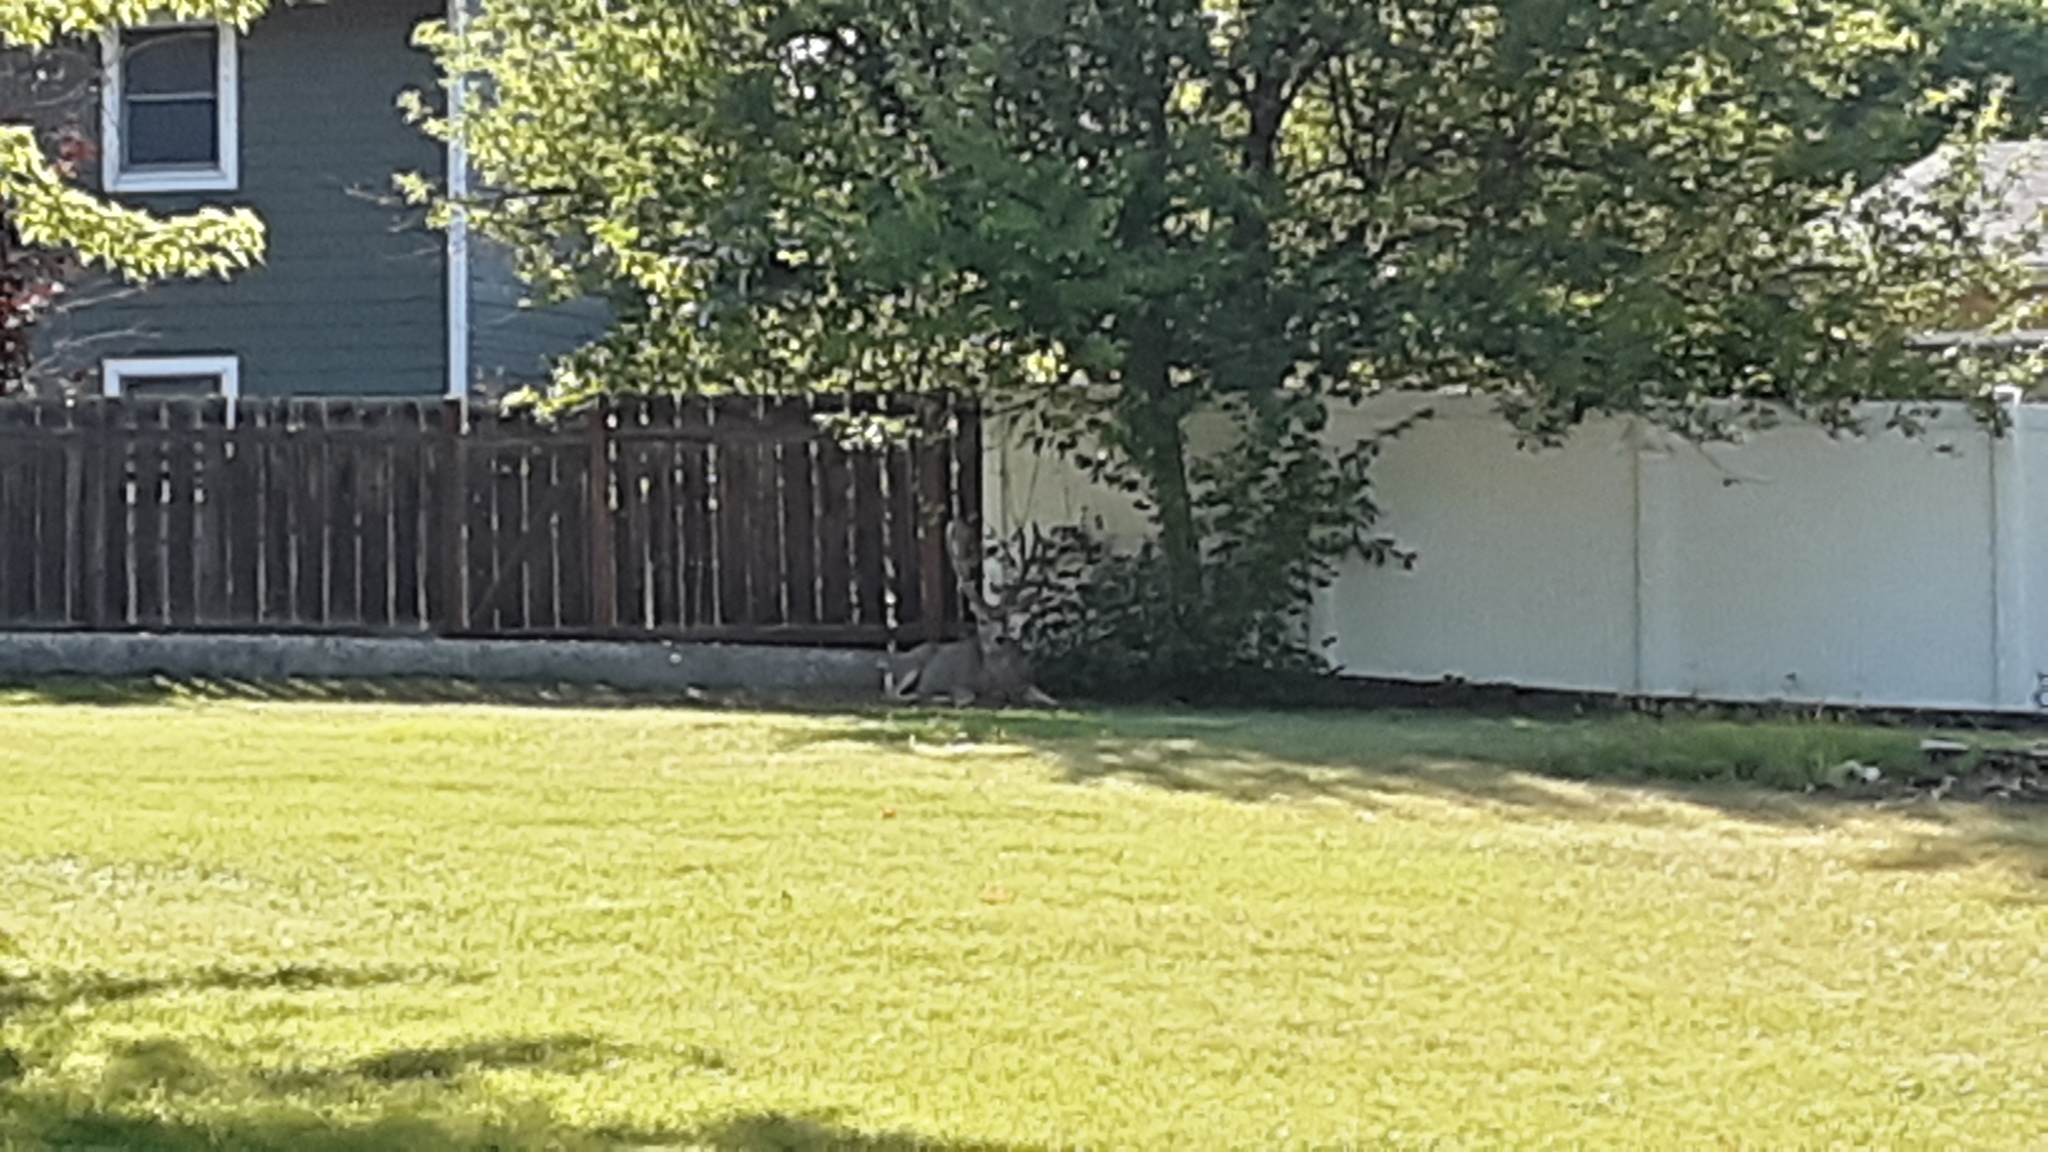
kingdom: Animalia
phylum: Chordata
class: Mammalia
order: Artiodactyla
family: Cervidae
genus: Odocoileus
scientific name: Odocoileus hemionus
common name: Mule deer
